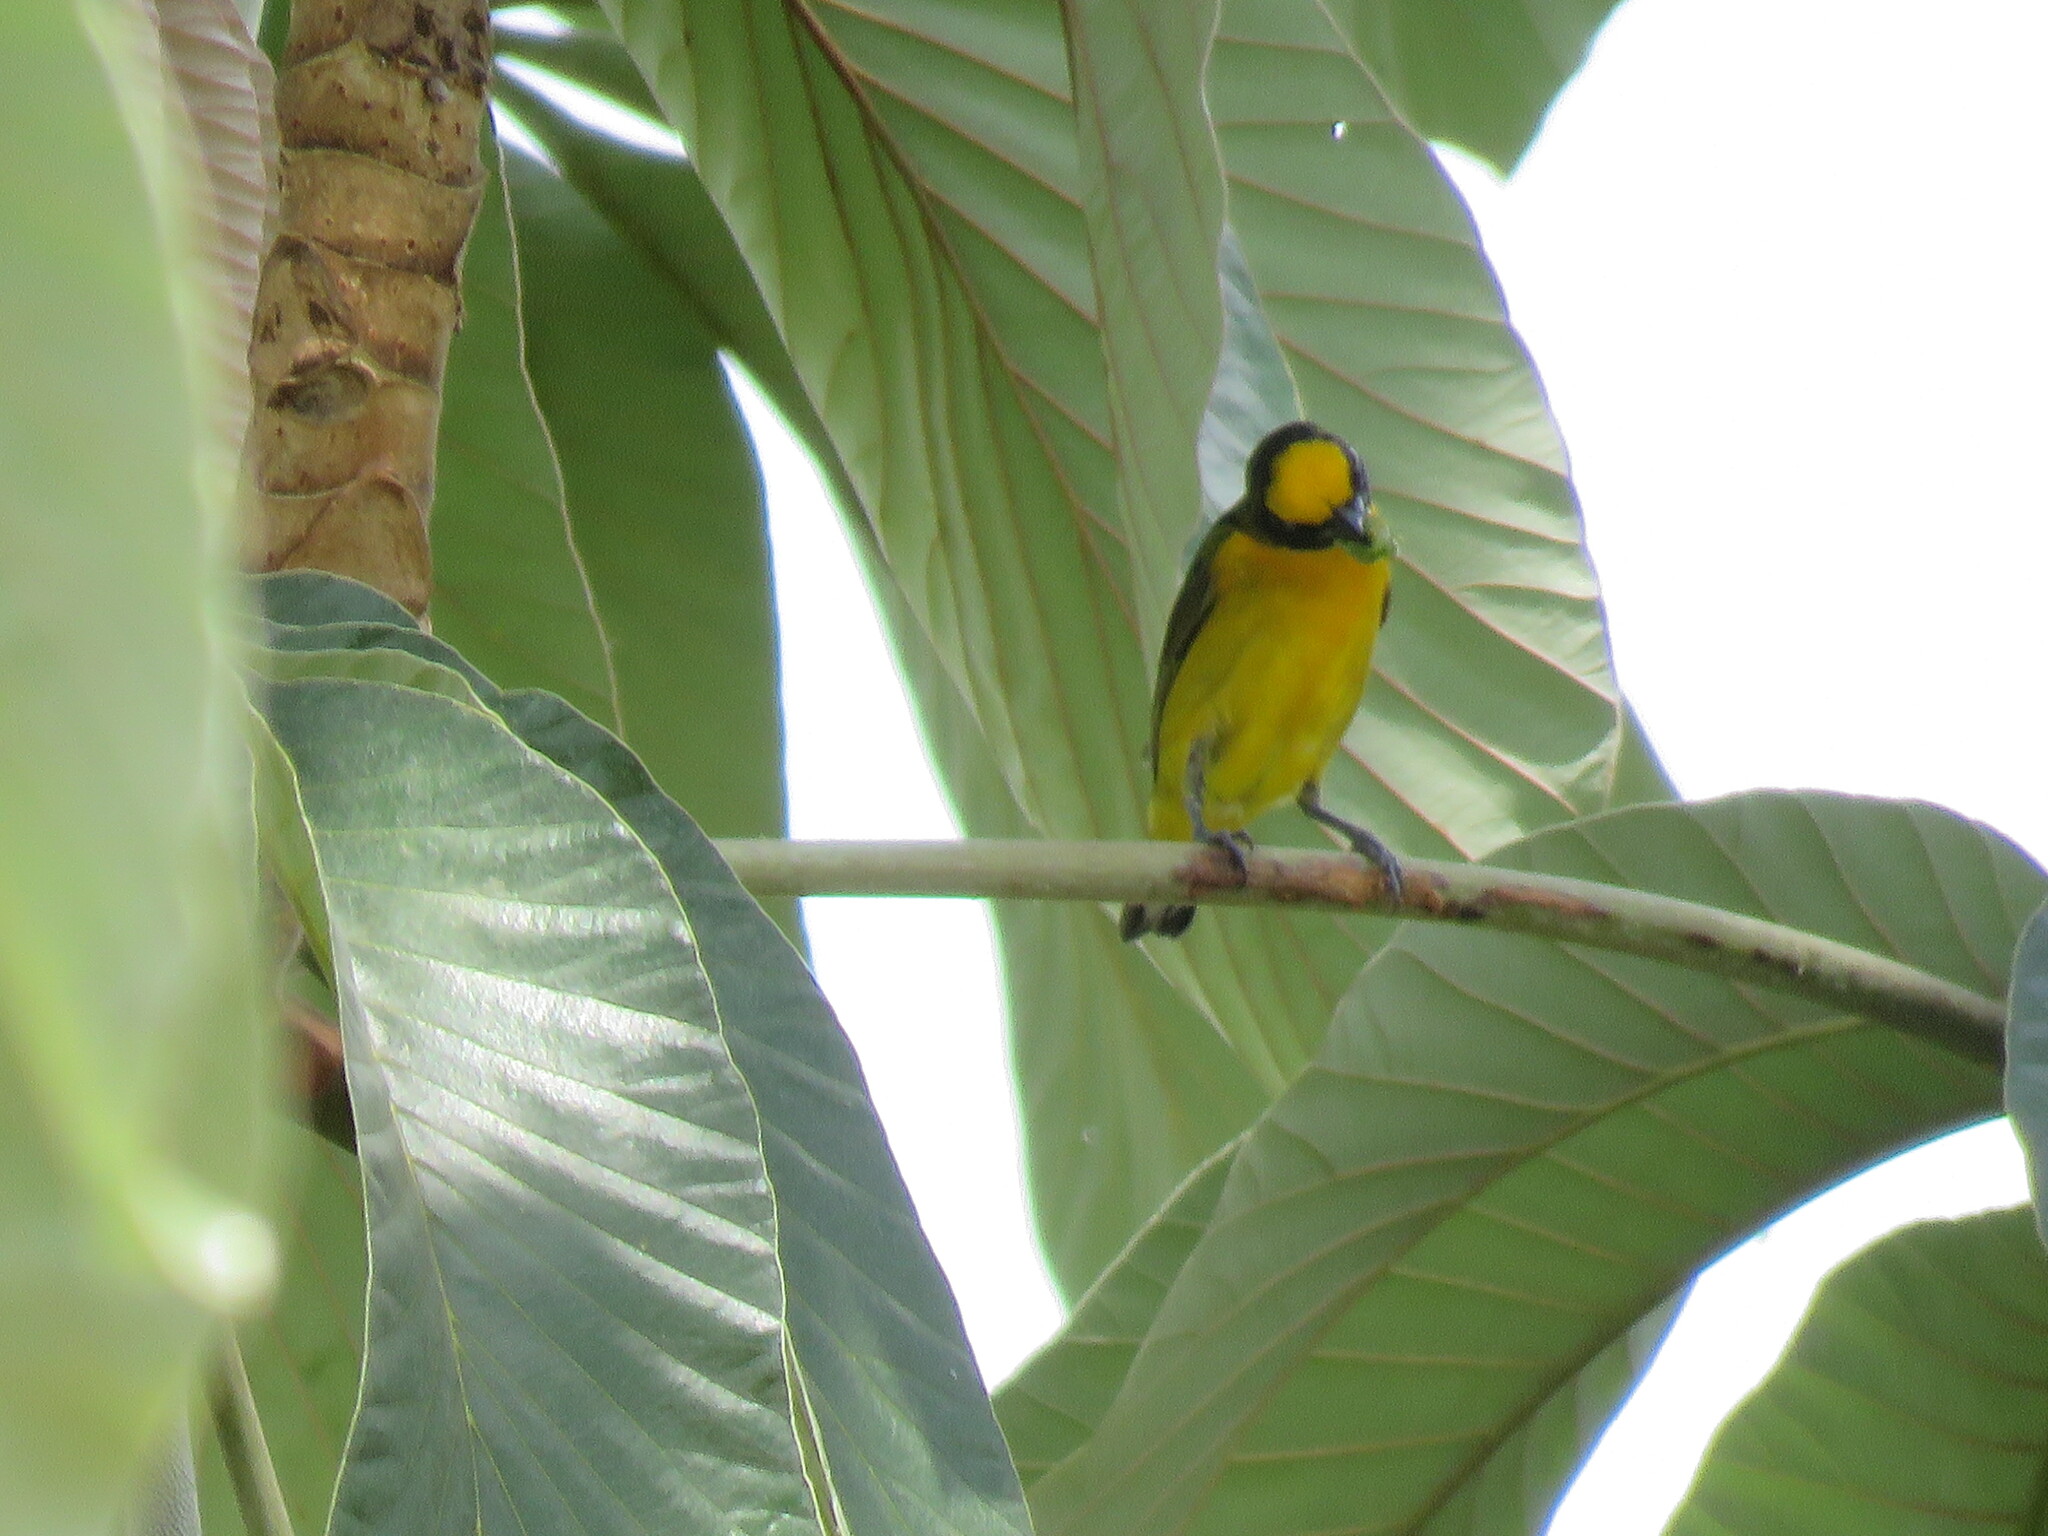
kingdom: Animalia
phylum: Chordata
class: Aves
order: Passeriformes
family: Fringillidae
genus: Euphonia
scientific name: Euphonia chlorotica
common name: Purple-throated euphonia
